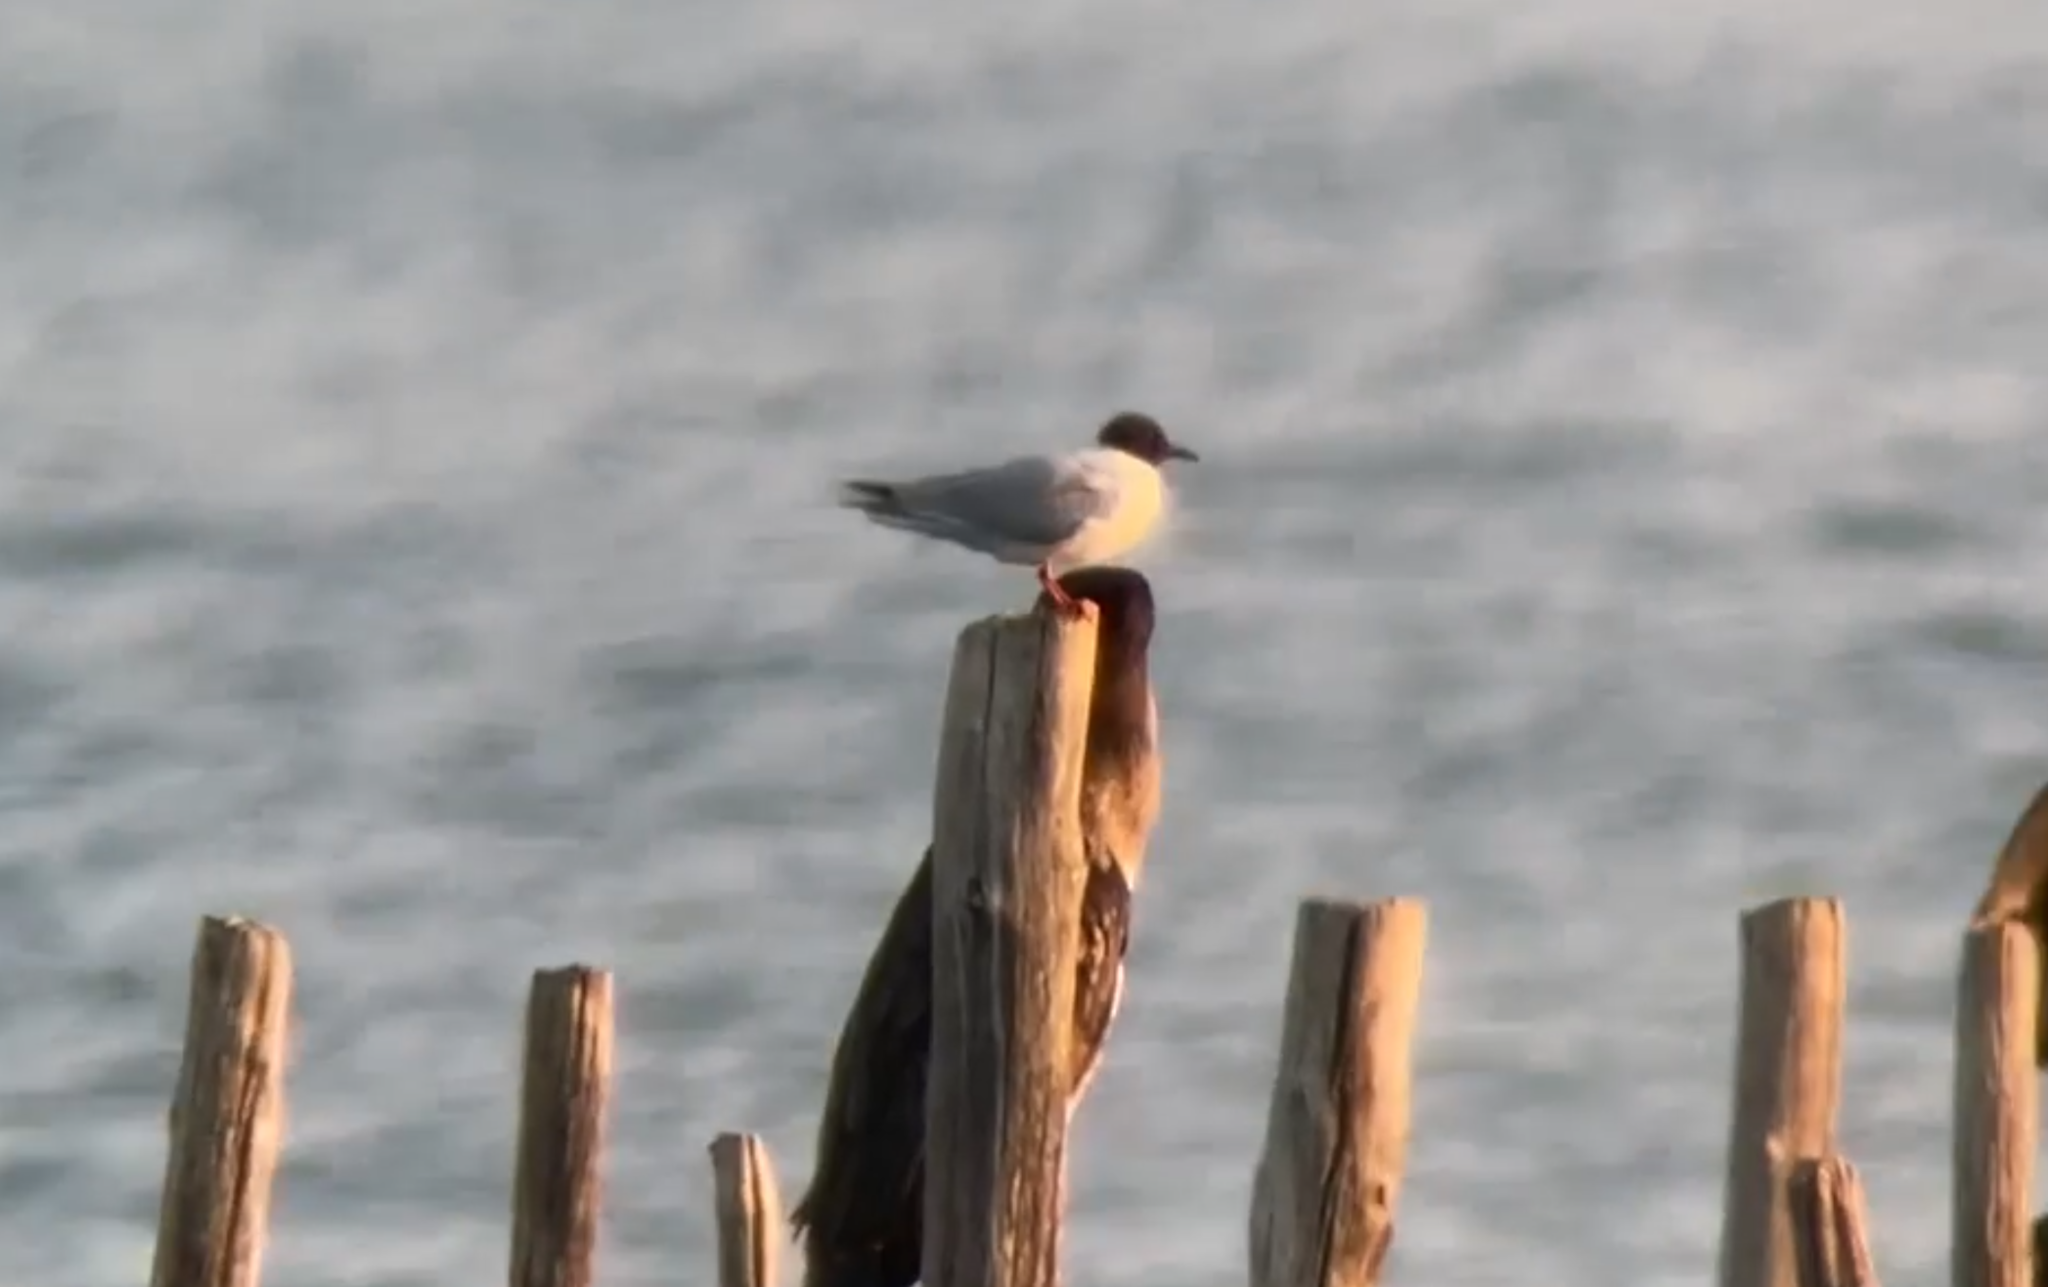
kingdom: Animalia
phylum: Chordata
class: Aves
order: Charadriiformes
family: Laridae
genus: Hydrocoloeus
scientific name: Hydrocoloeus minutus
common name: Little gull
